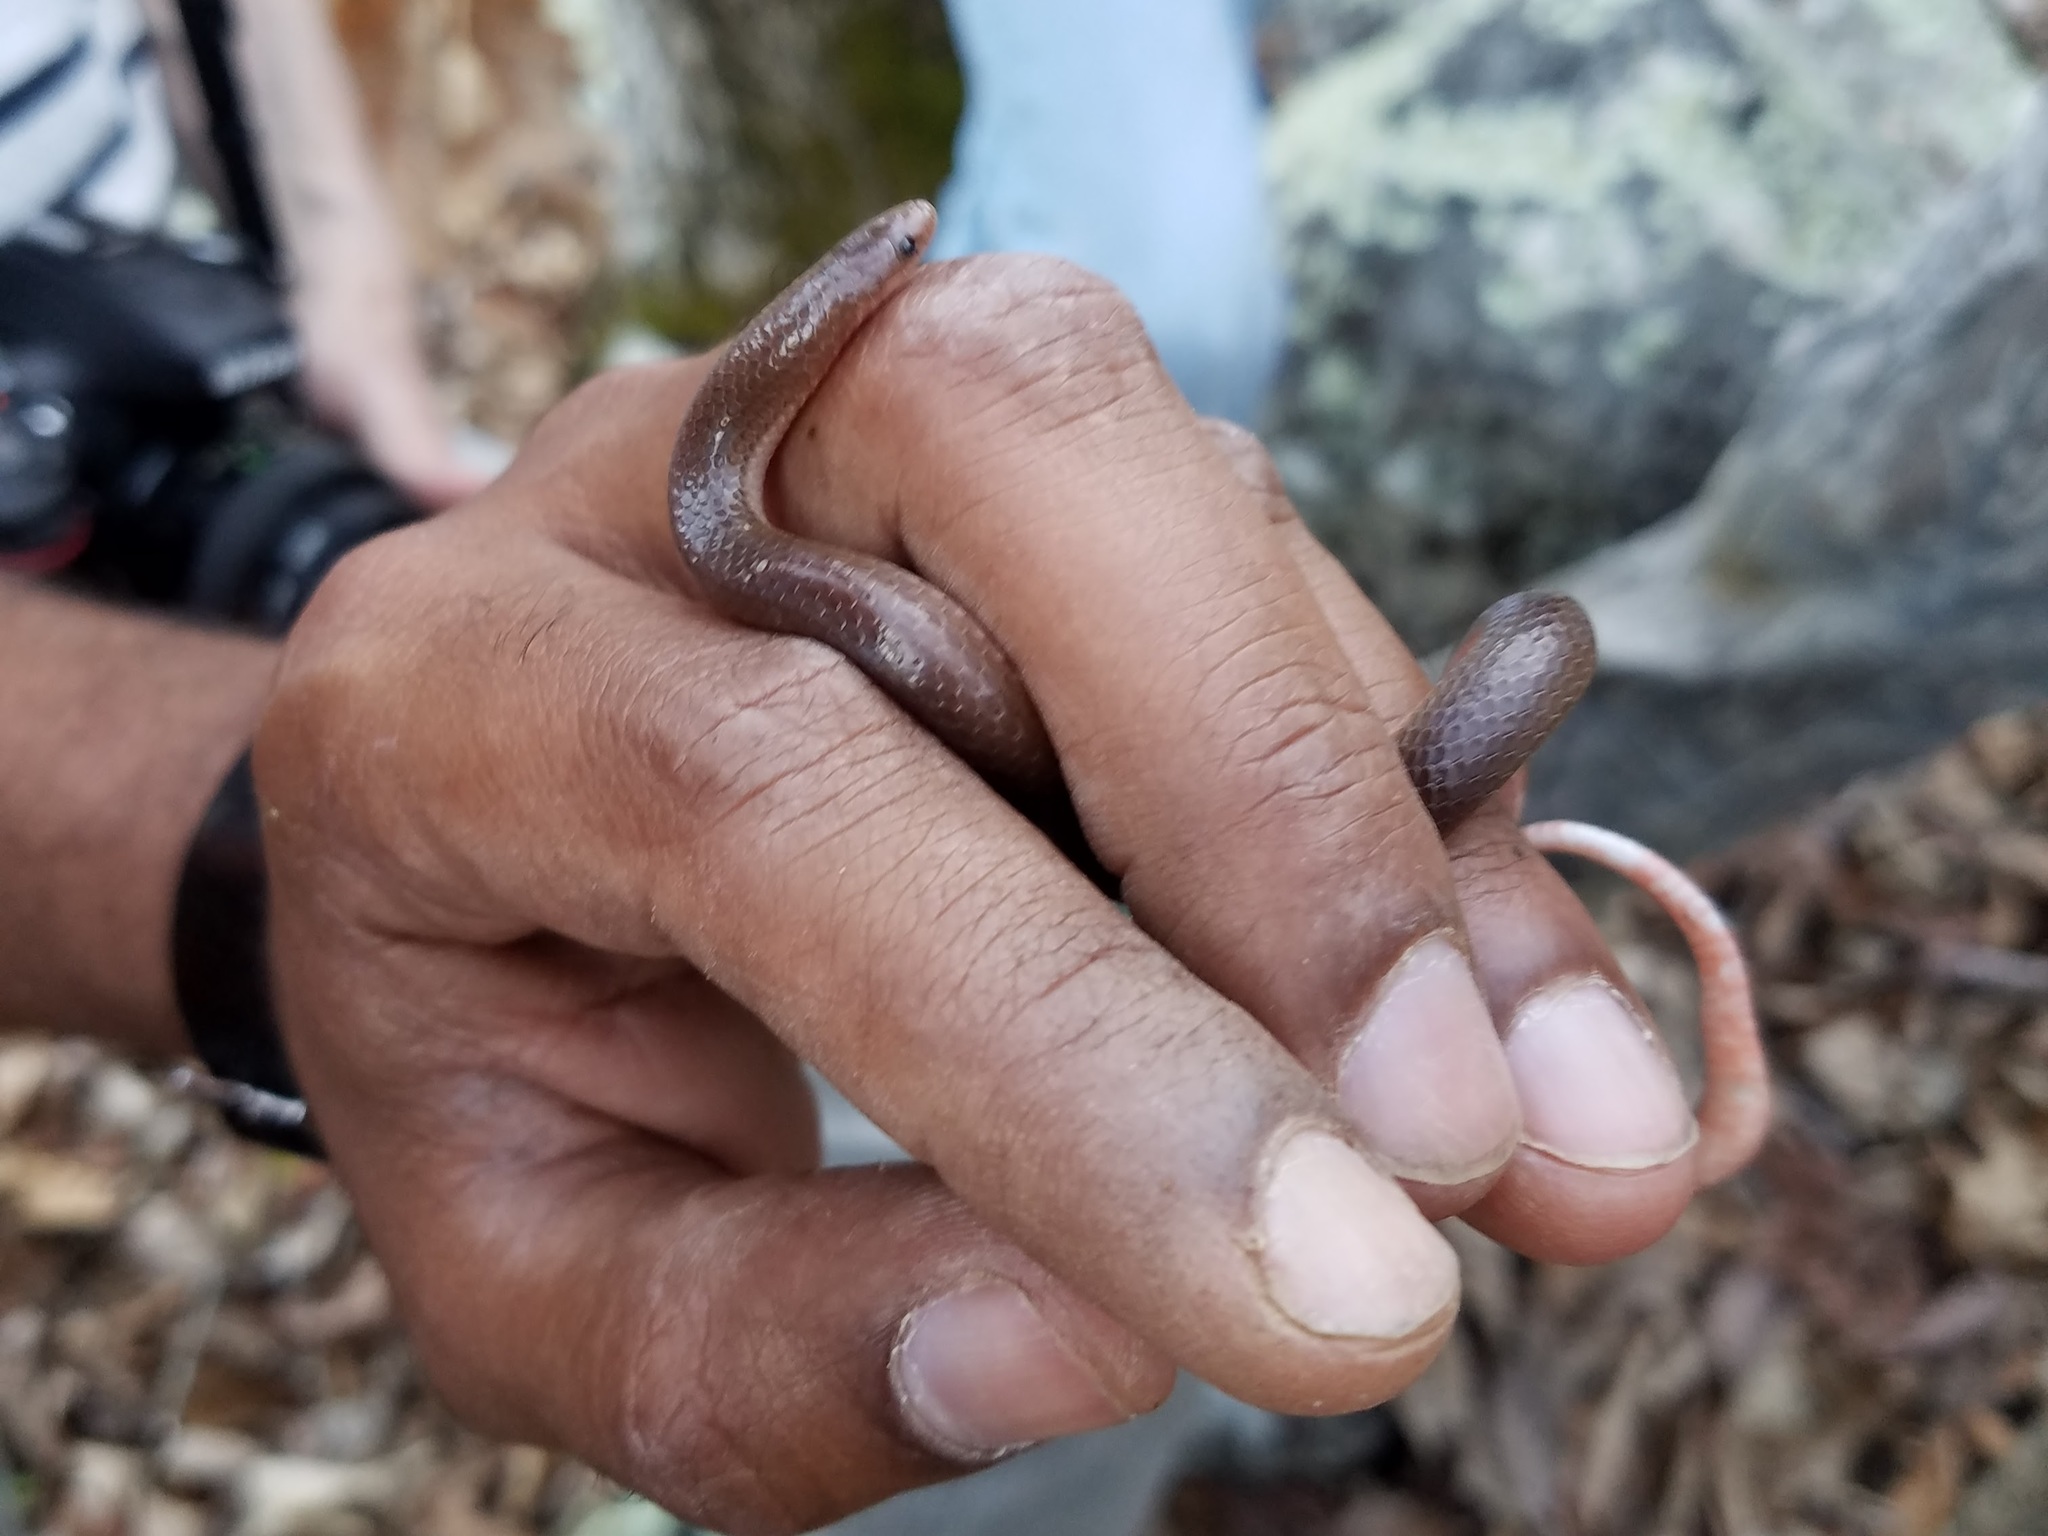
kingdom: Animalia
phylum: Chordata
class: Squamata
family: Colubridae
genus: Carphophis
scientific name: Carphophis amoenus
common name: Eastern worm snake
